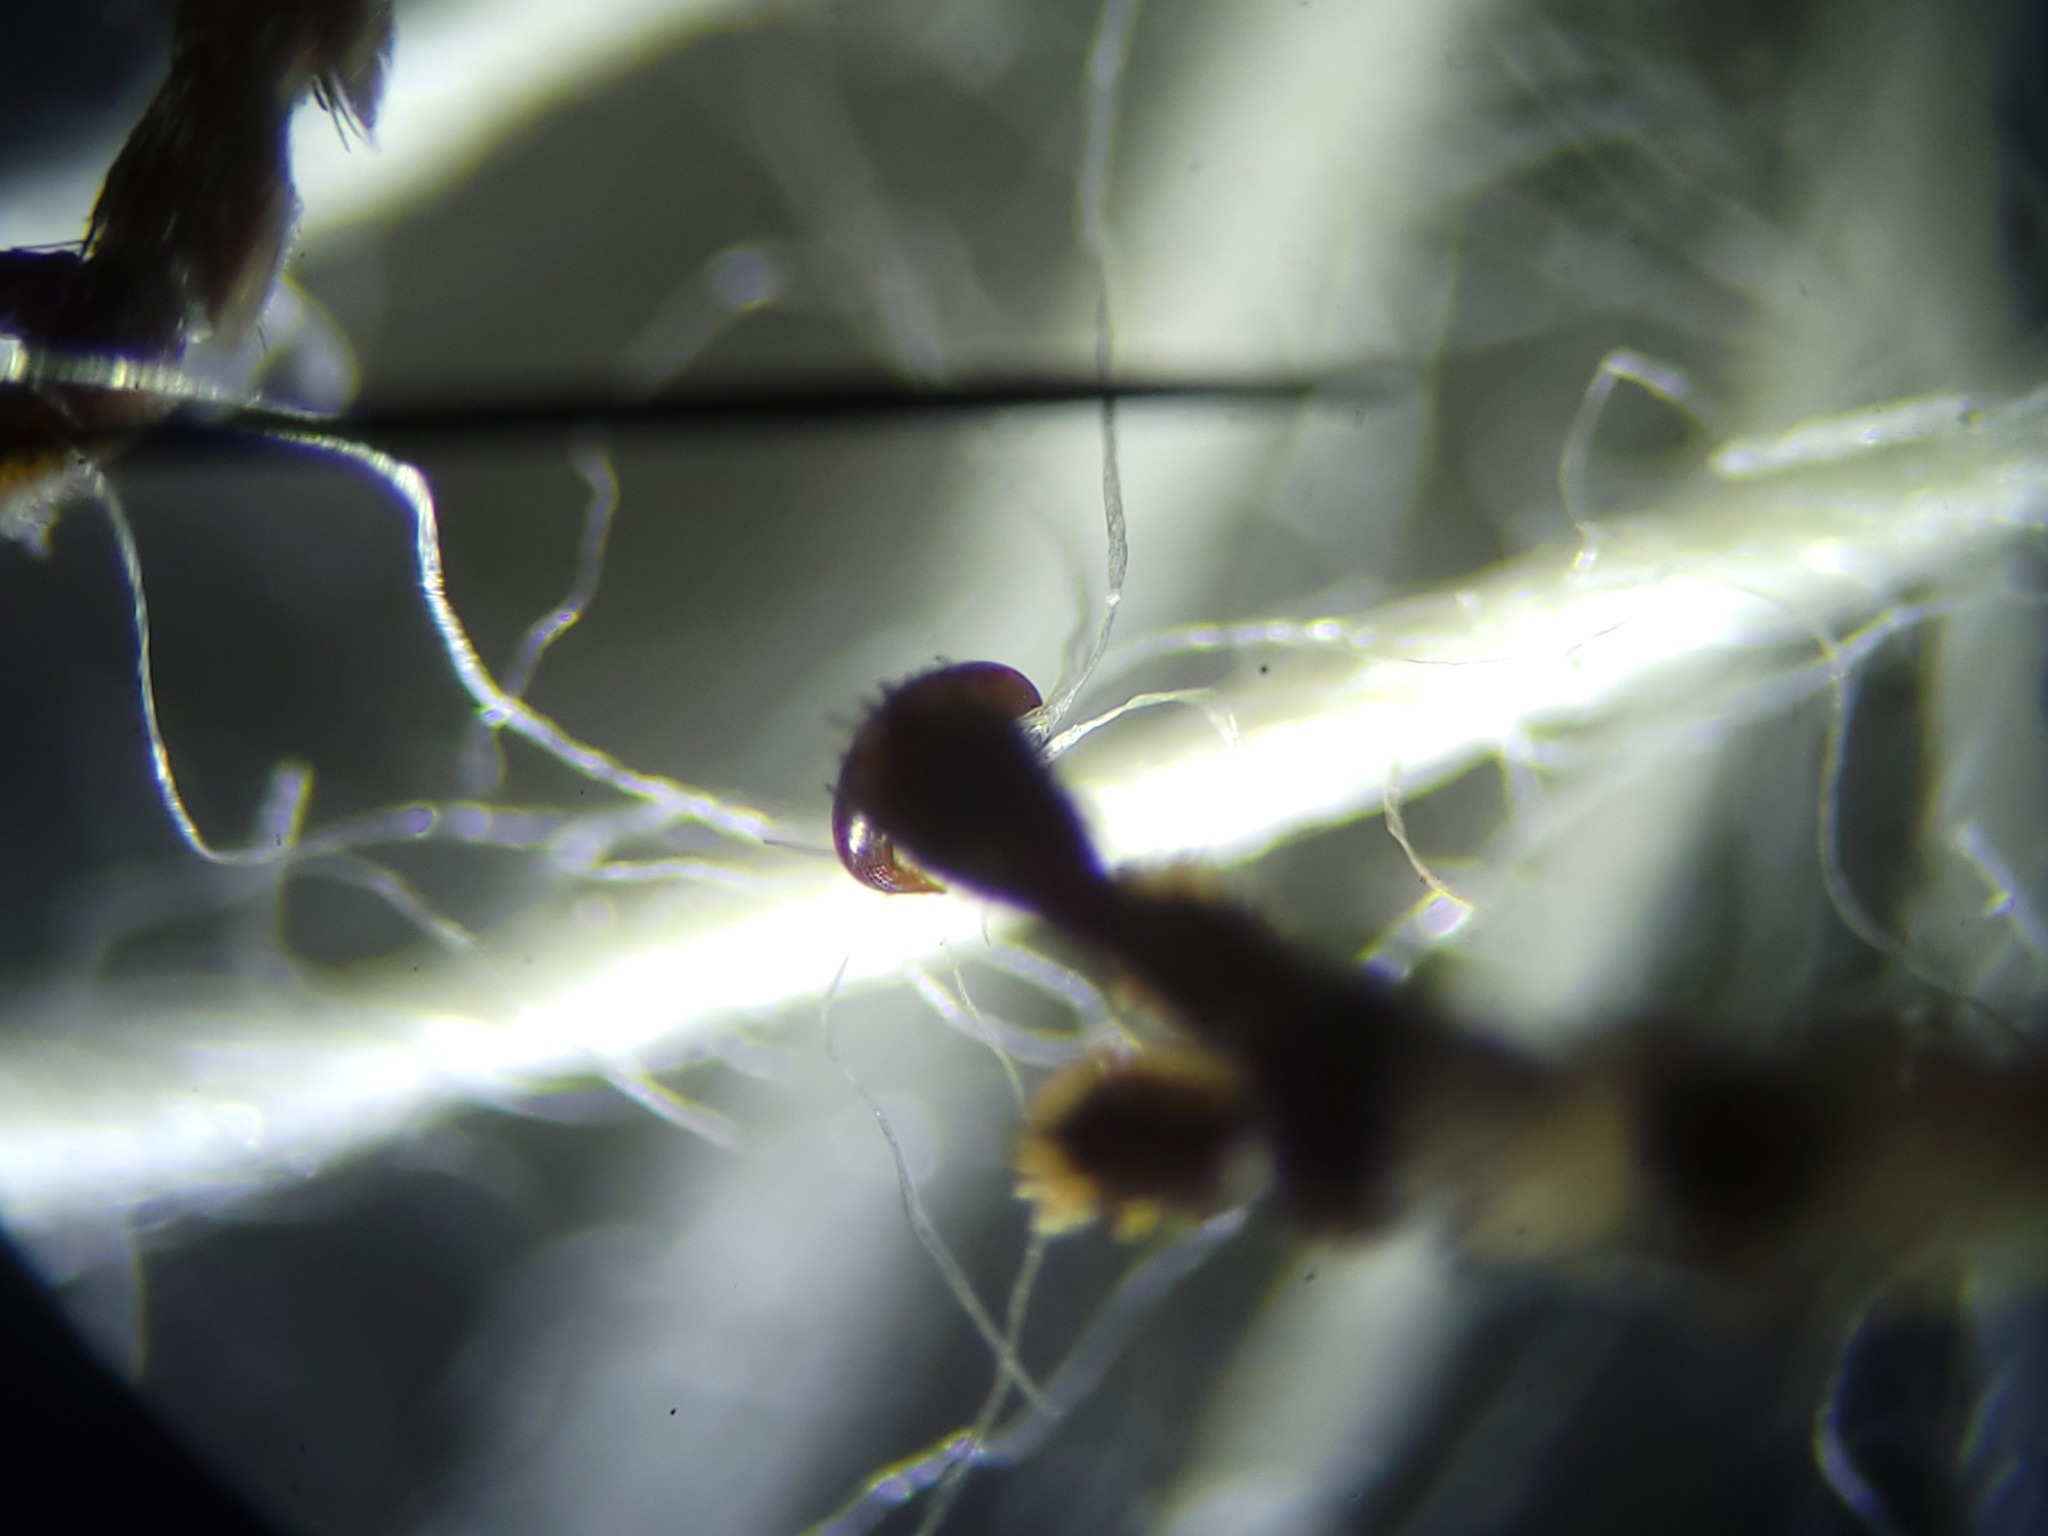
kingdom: Animalia
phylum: Arthropoda
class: Insecta
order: Coleoptera
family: Cerambycidae
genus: Leptostylus
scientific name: Leptostylus transversus
